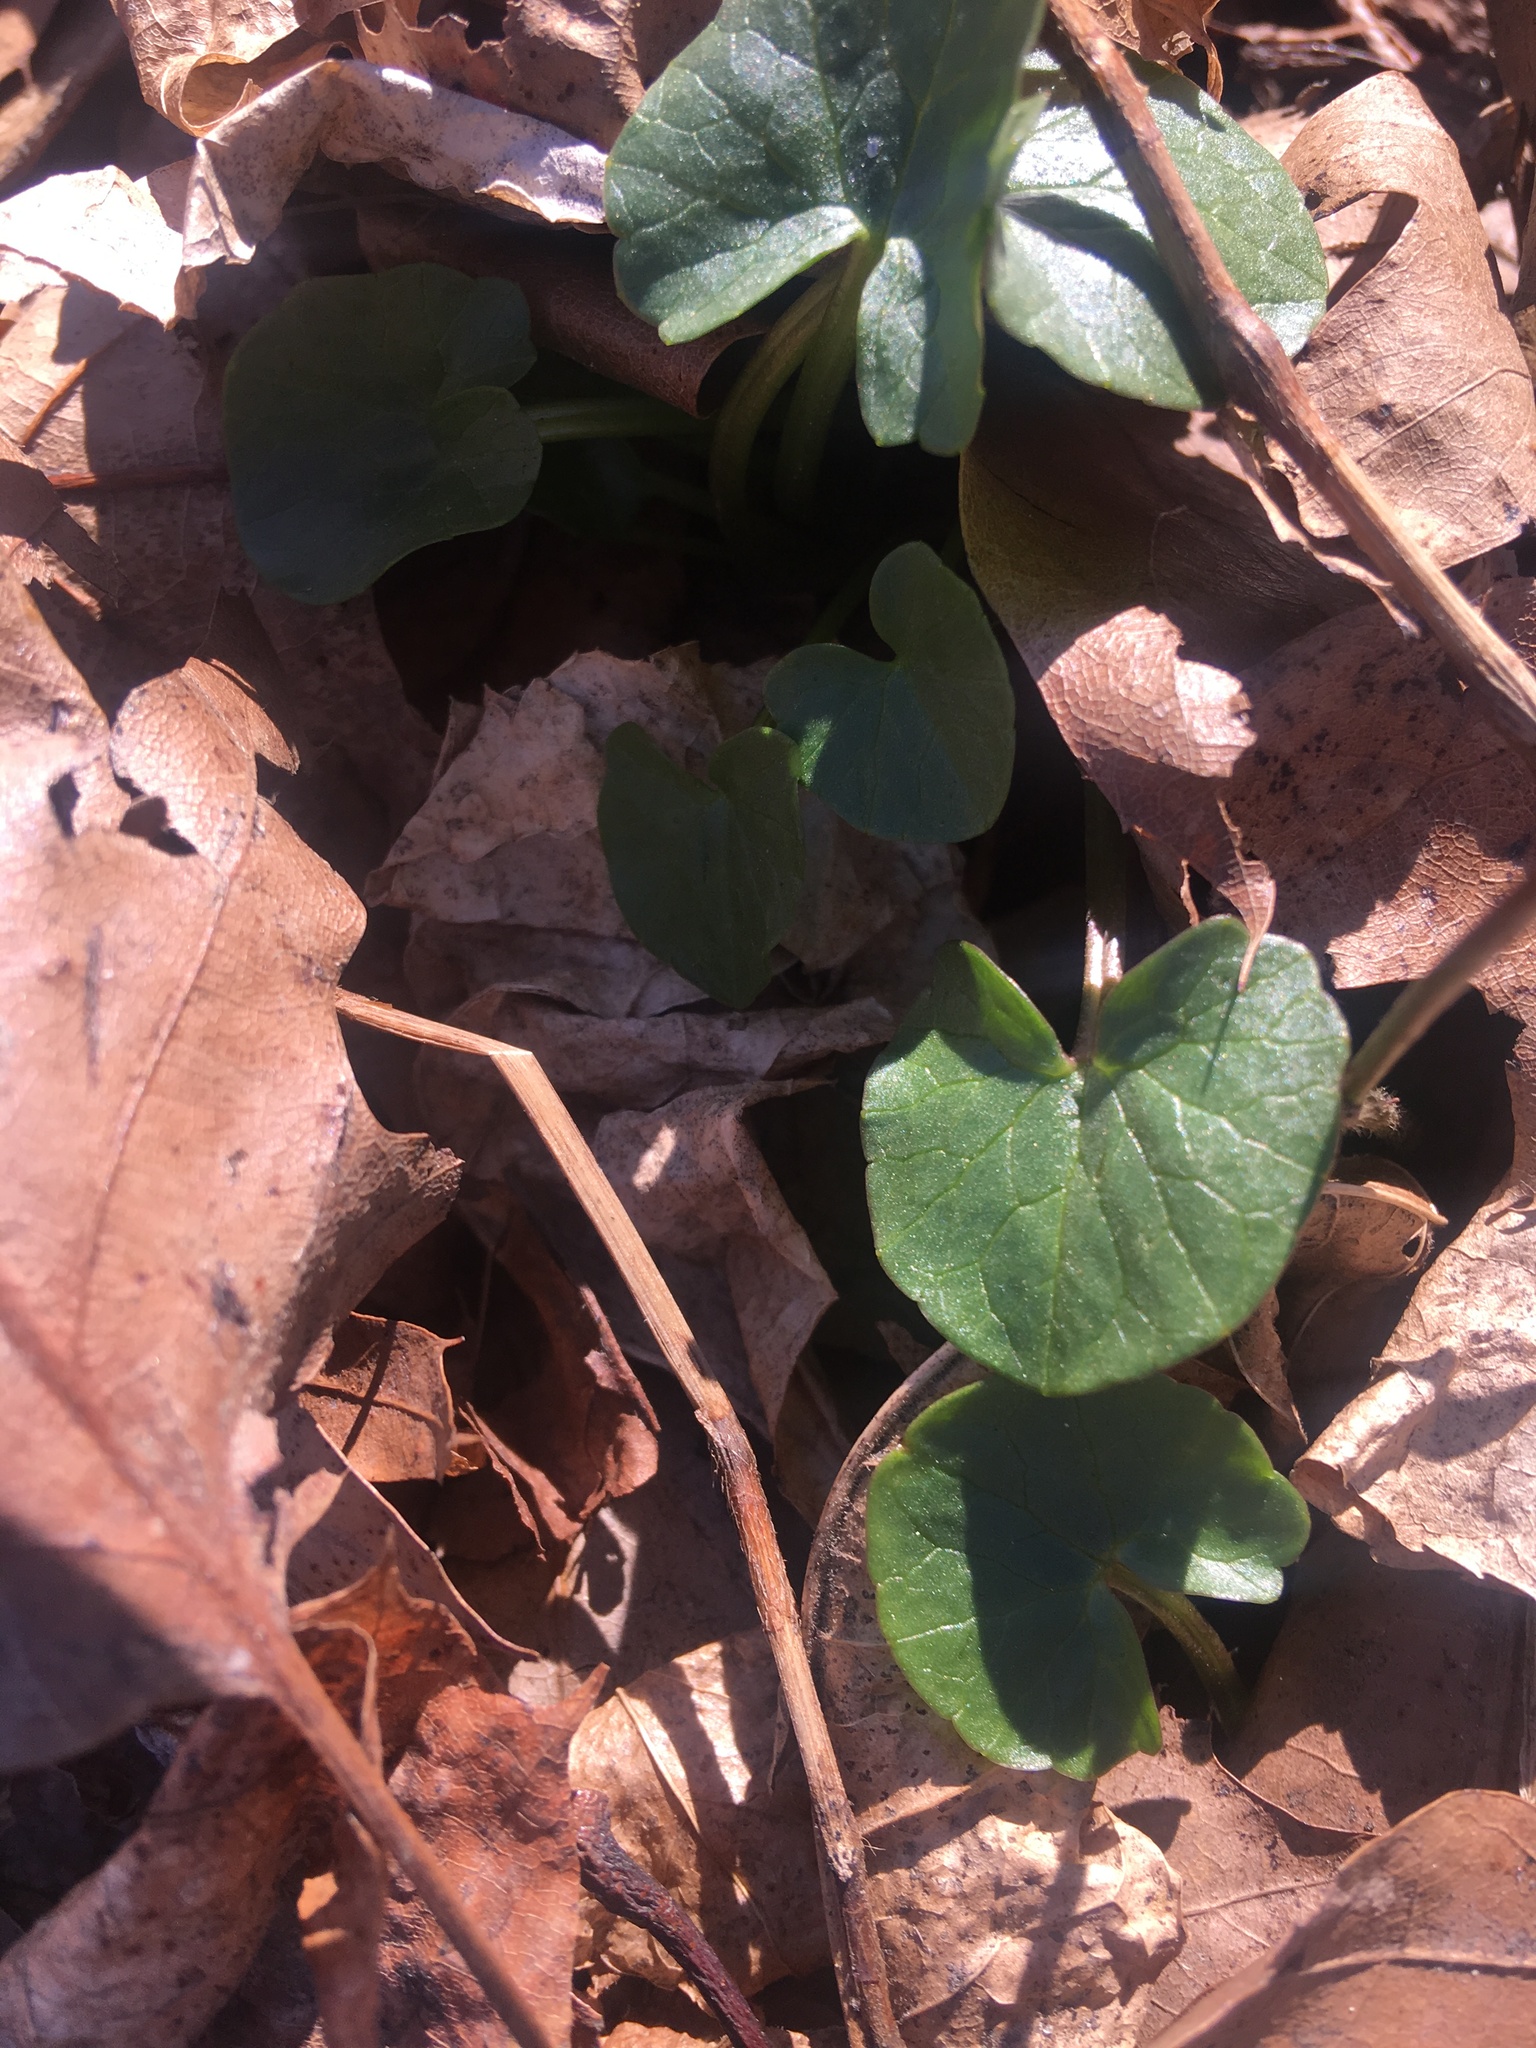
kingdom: Plantae
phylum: Tracheophyta
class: Magnoliopsida
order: Ranunculales
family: Ranunculaceae
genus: Ficaria
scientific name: Ficaria verna
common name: Lesser celandine
